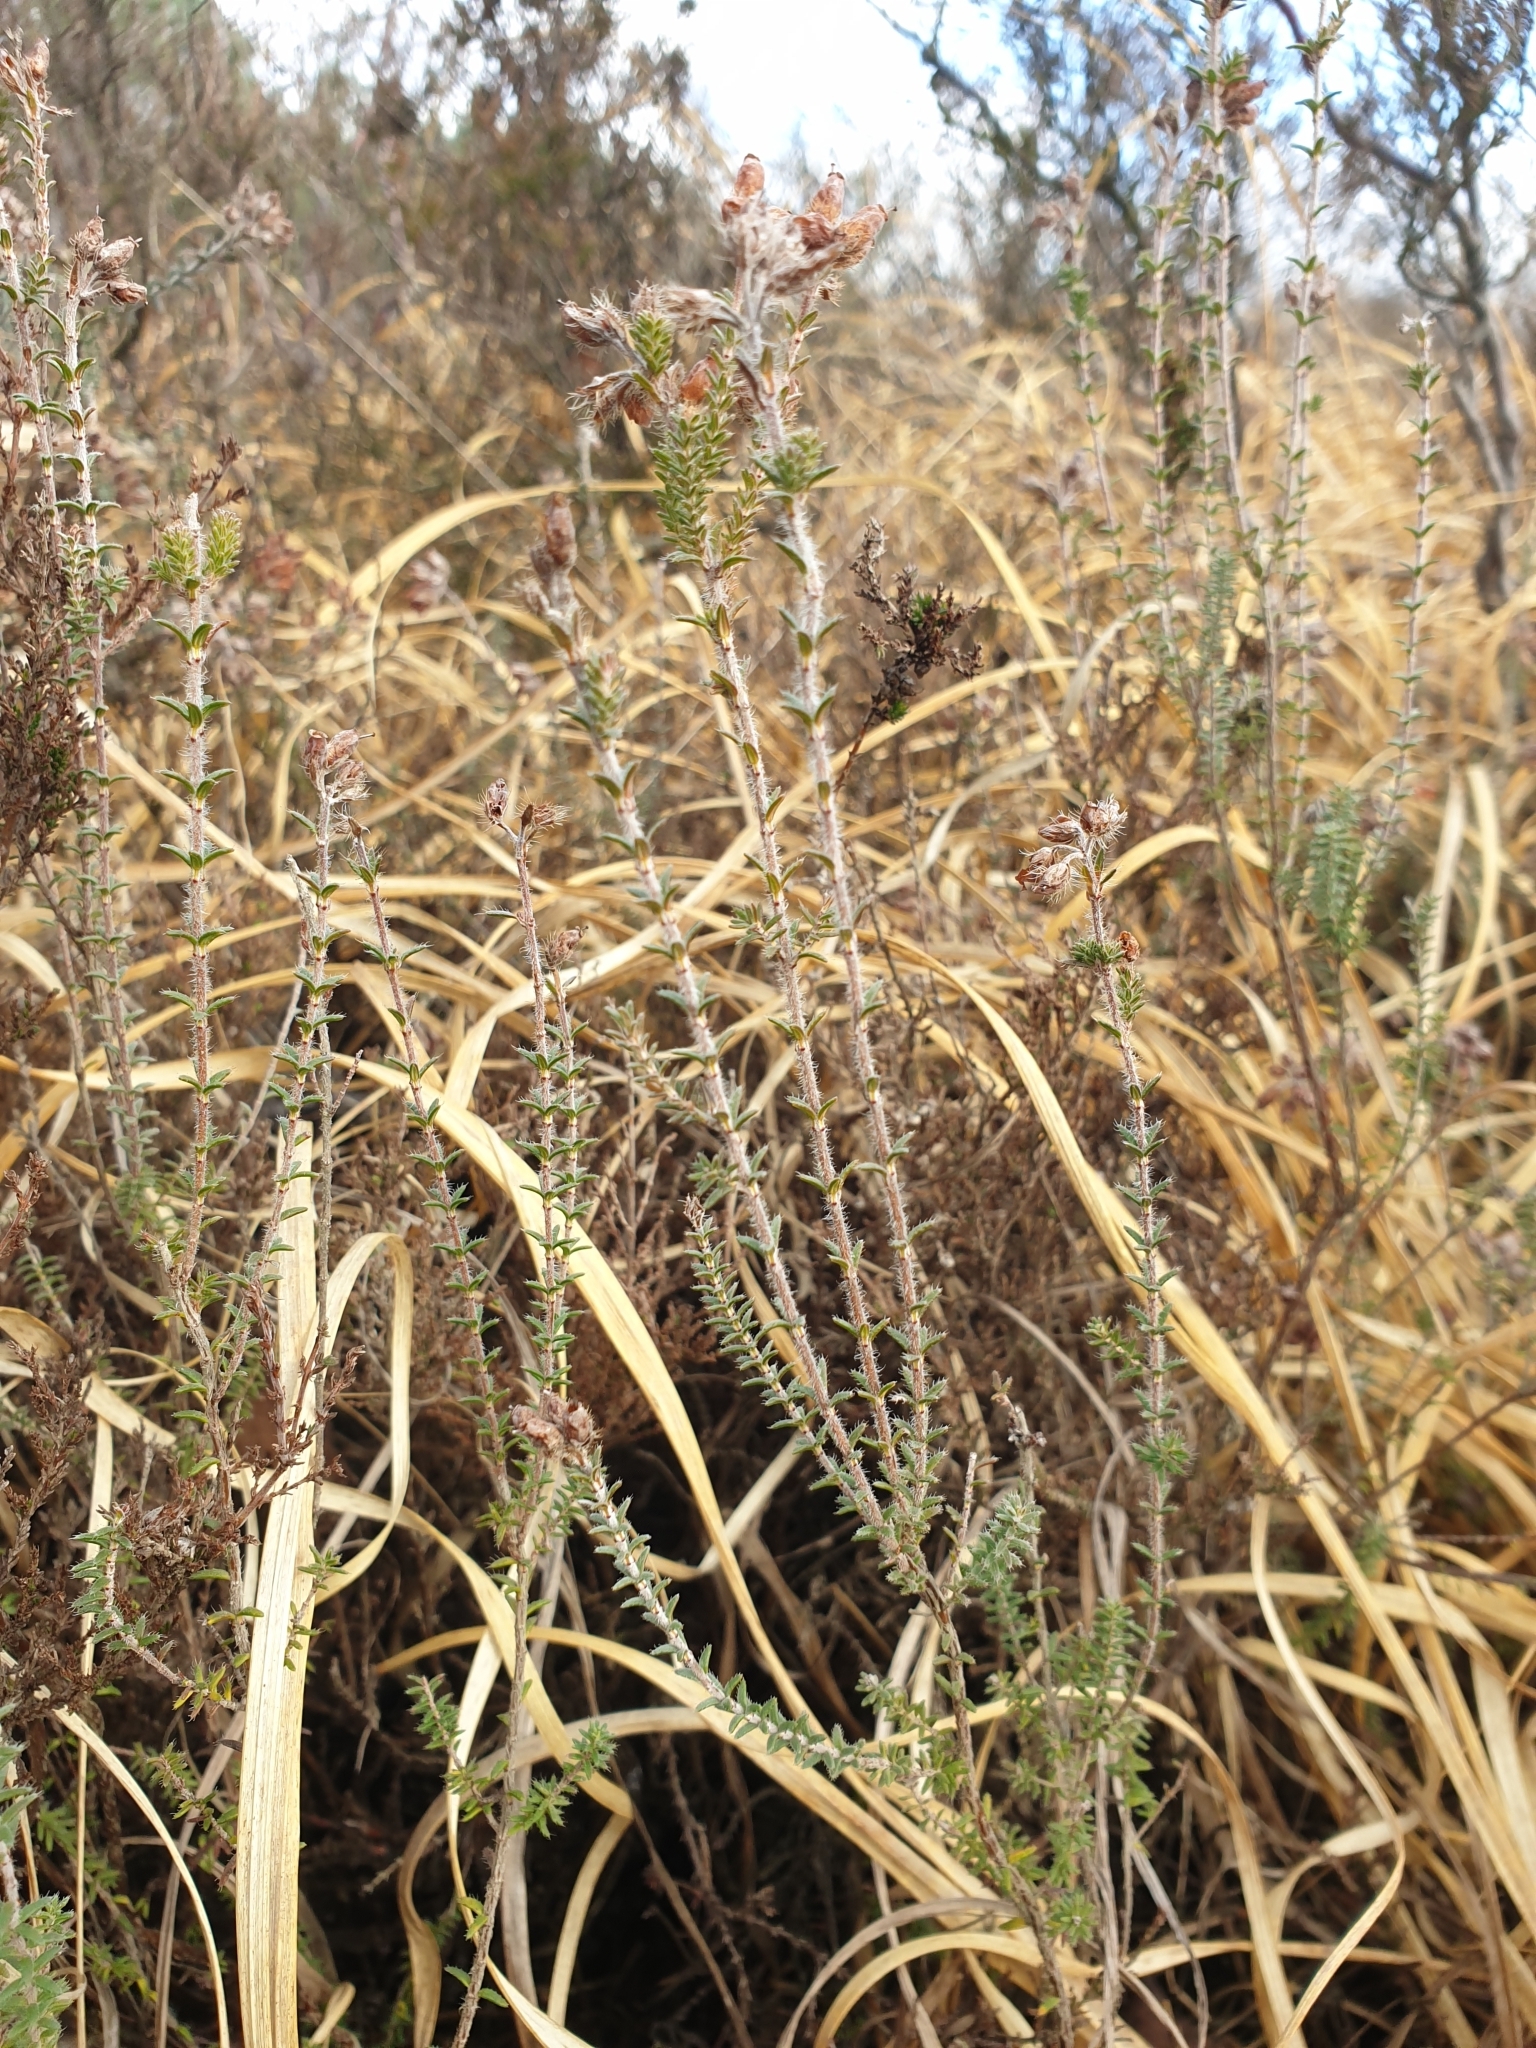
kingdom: Plantae
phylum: Tracheophyta
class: Magnoliopsida
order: Ericales
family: Ericaceae
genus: Erica
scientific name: Erica tetralix
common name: Cross-leaved heath
